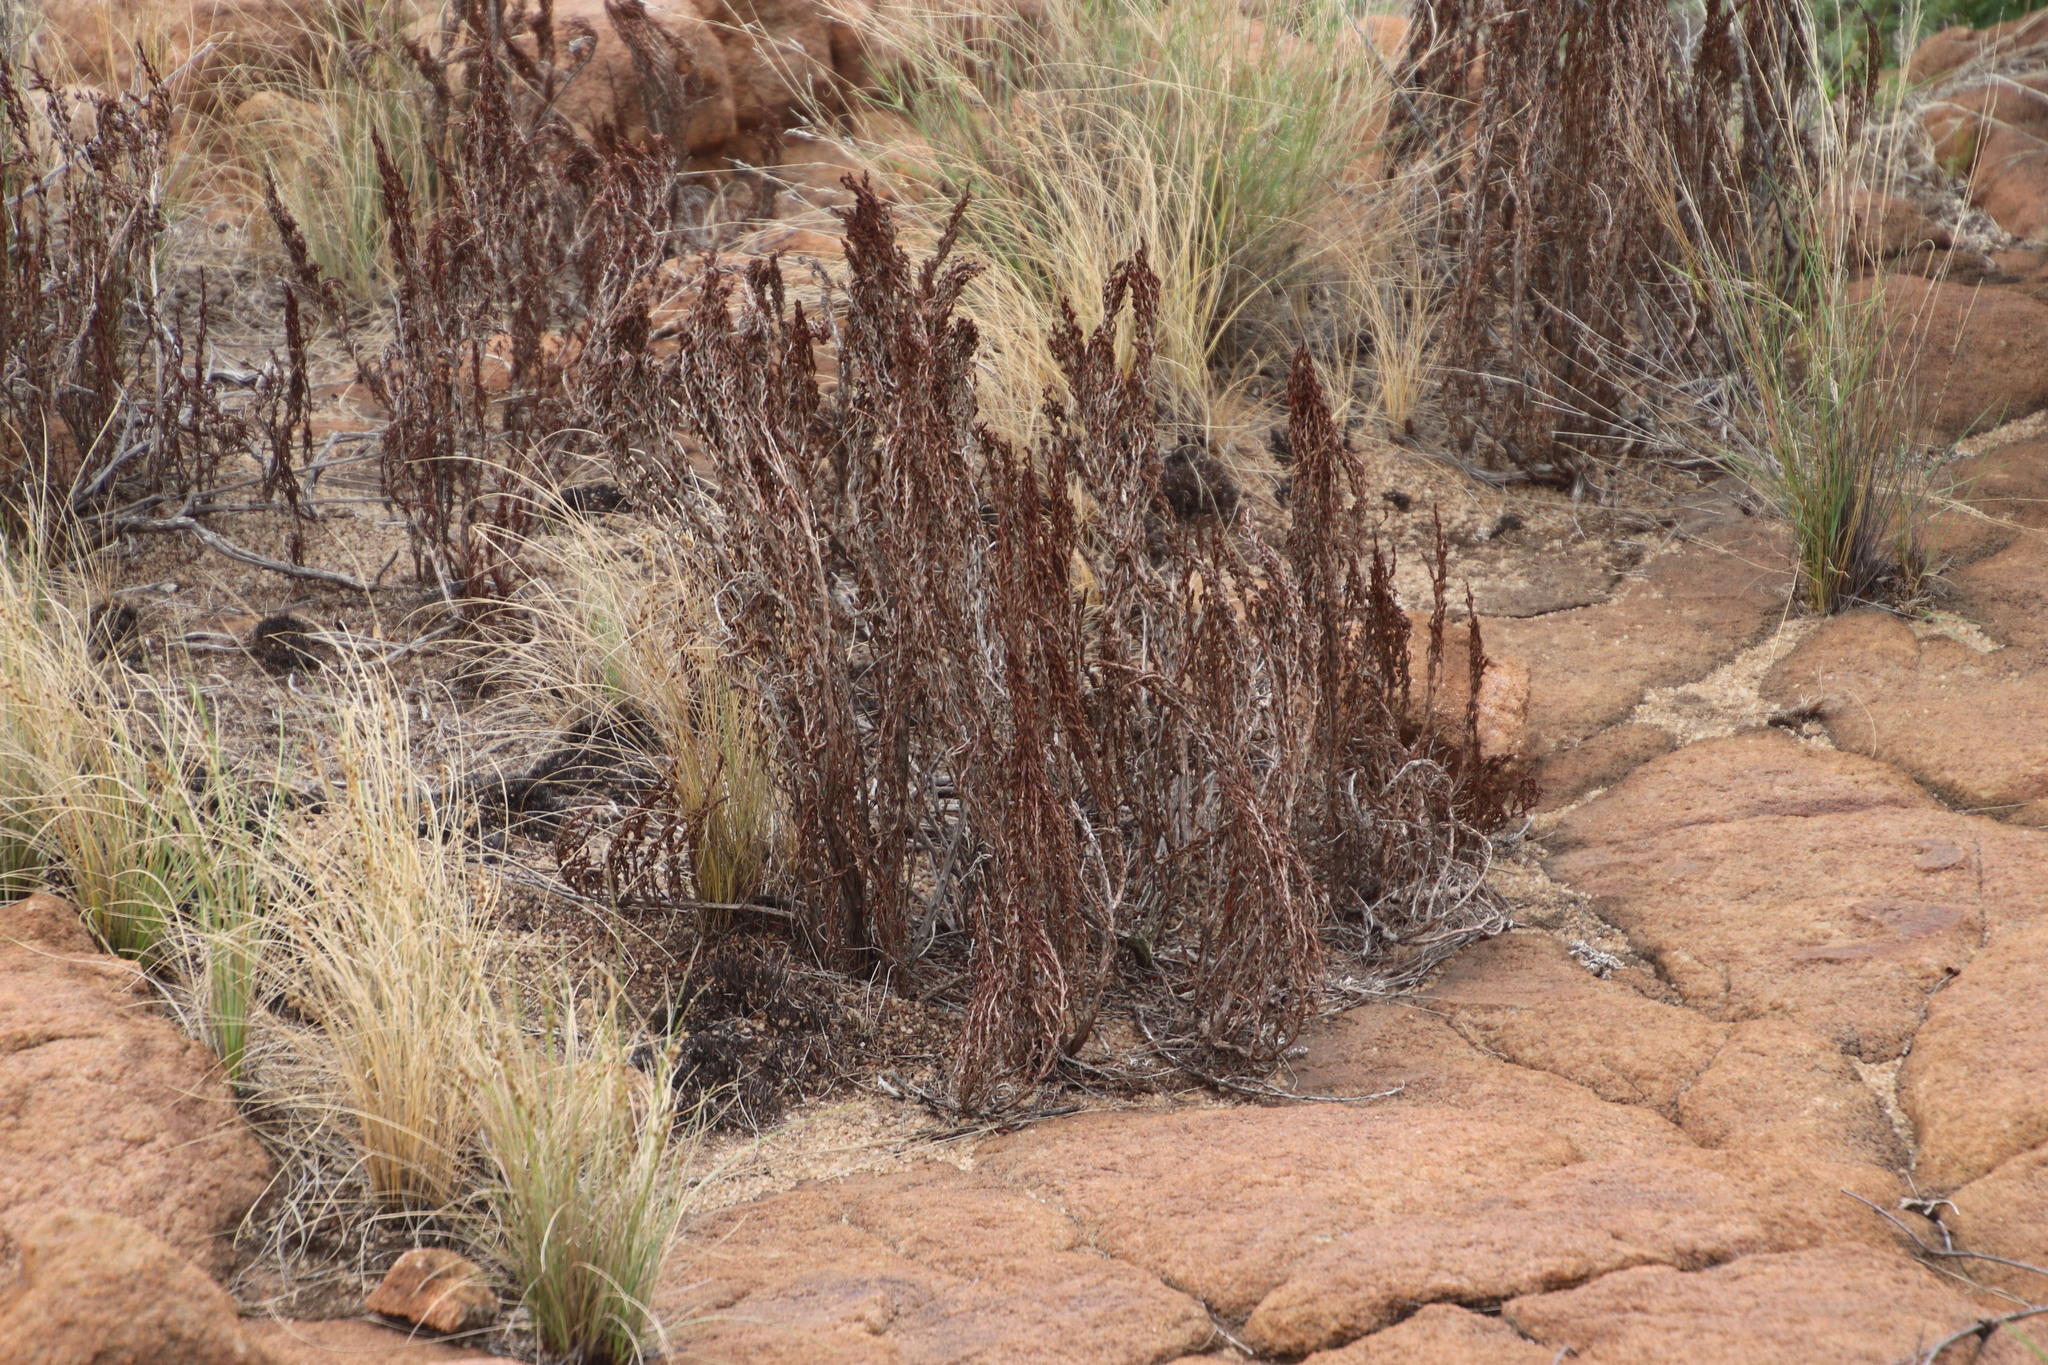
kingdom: Plantae
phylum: Tracheophyta
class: Magnoliopsida
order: Gunnerales
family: Myrothamnaceae
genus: Myrothamnus
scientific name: Myrothamnus flabellifolius
